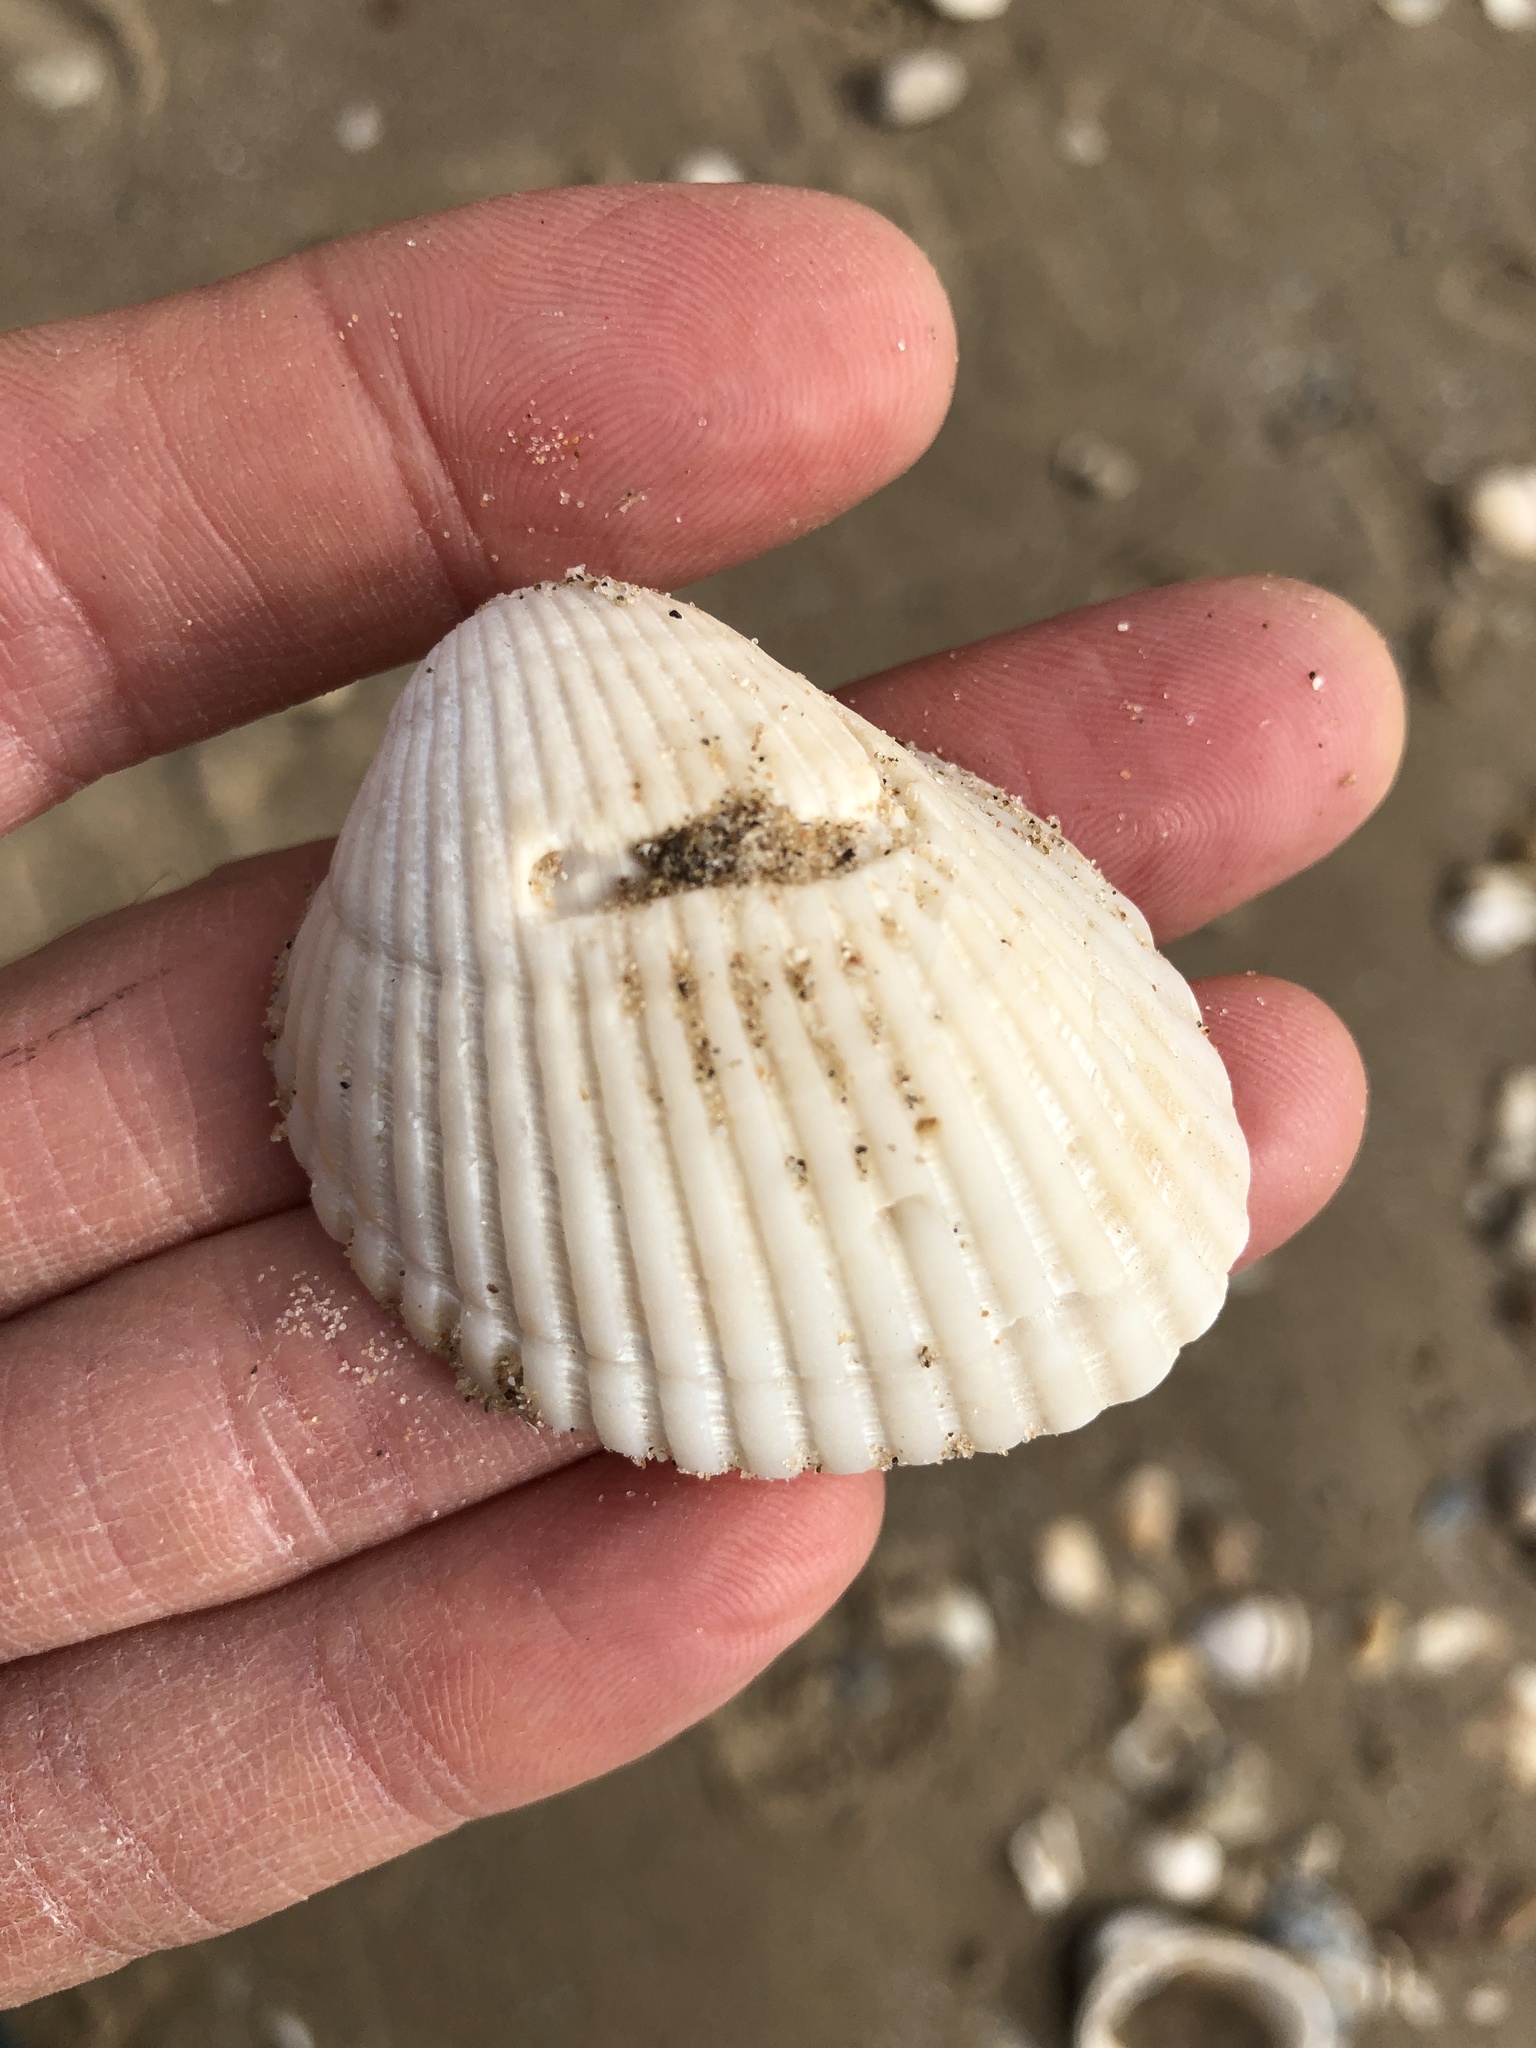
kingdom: Animalia
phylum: Mollusca
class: Bivalvia
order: Arcida
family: Arcidae
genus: Lunarca
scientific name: Lunarca ovalis
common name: Blood ark
